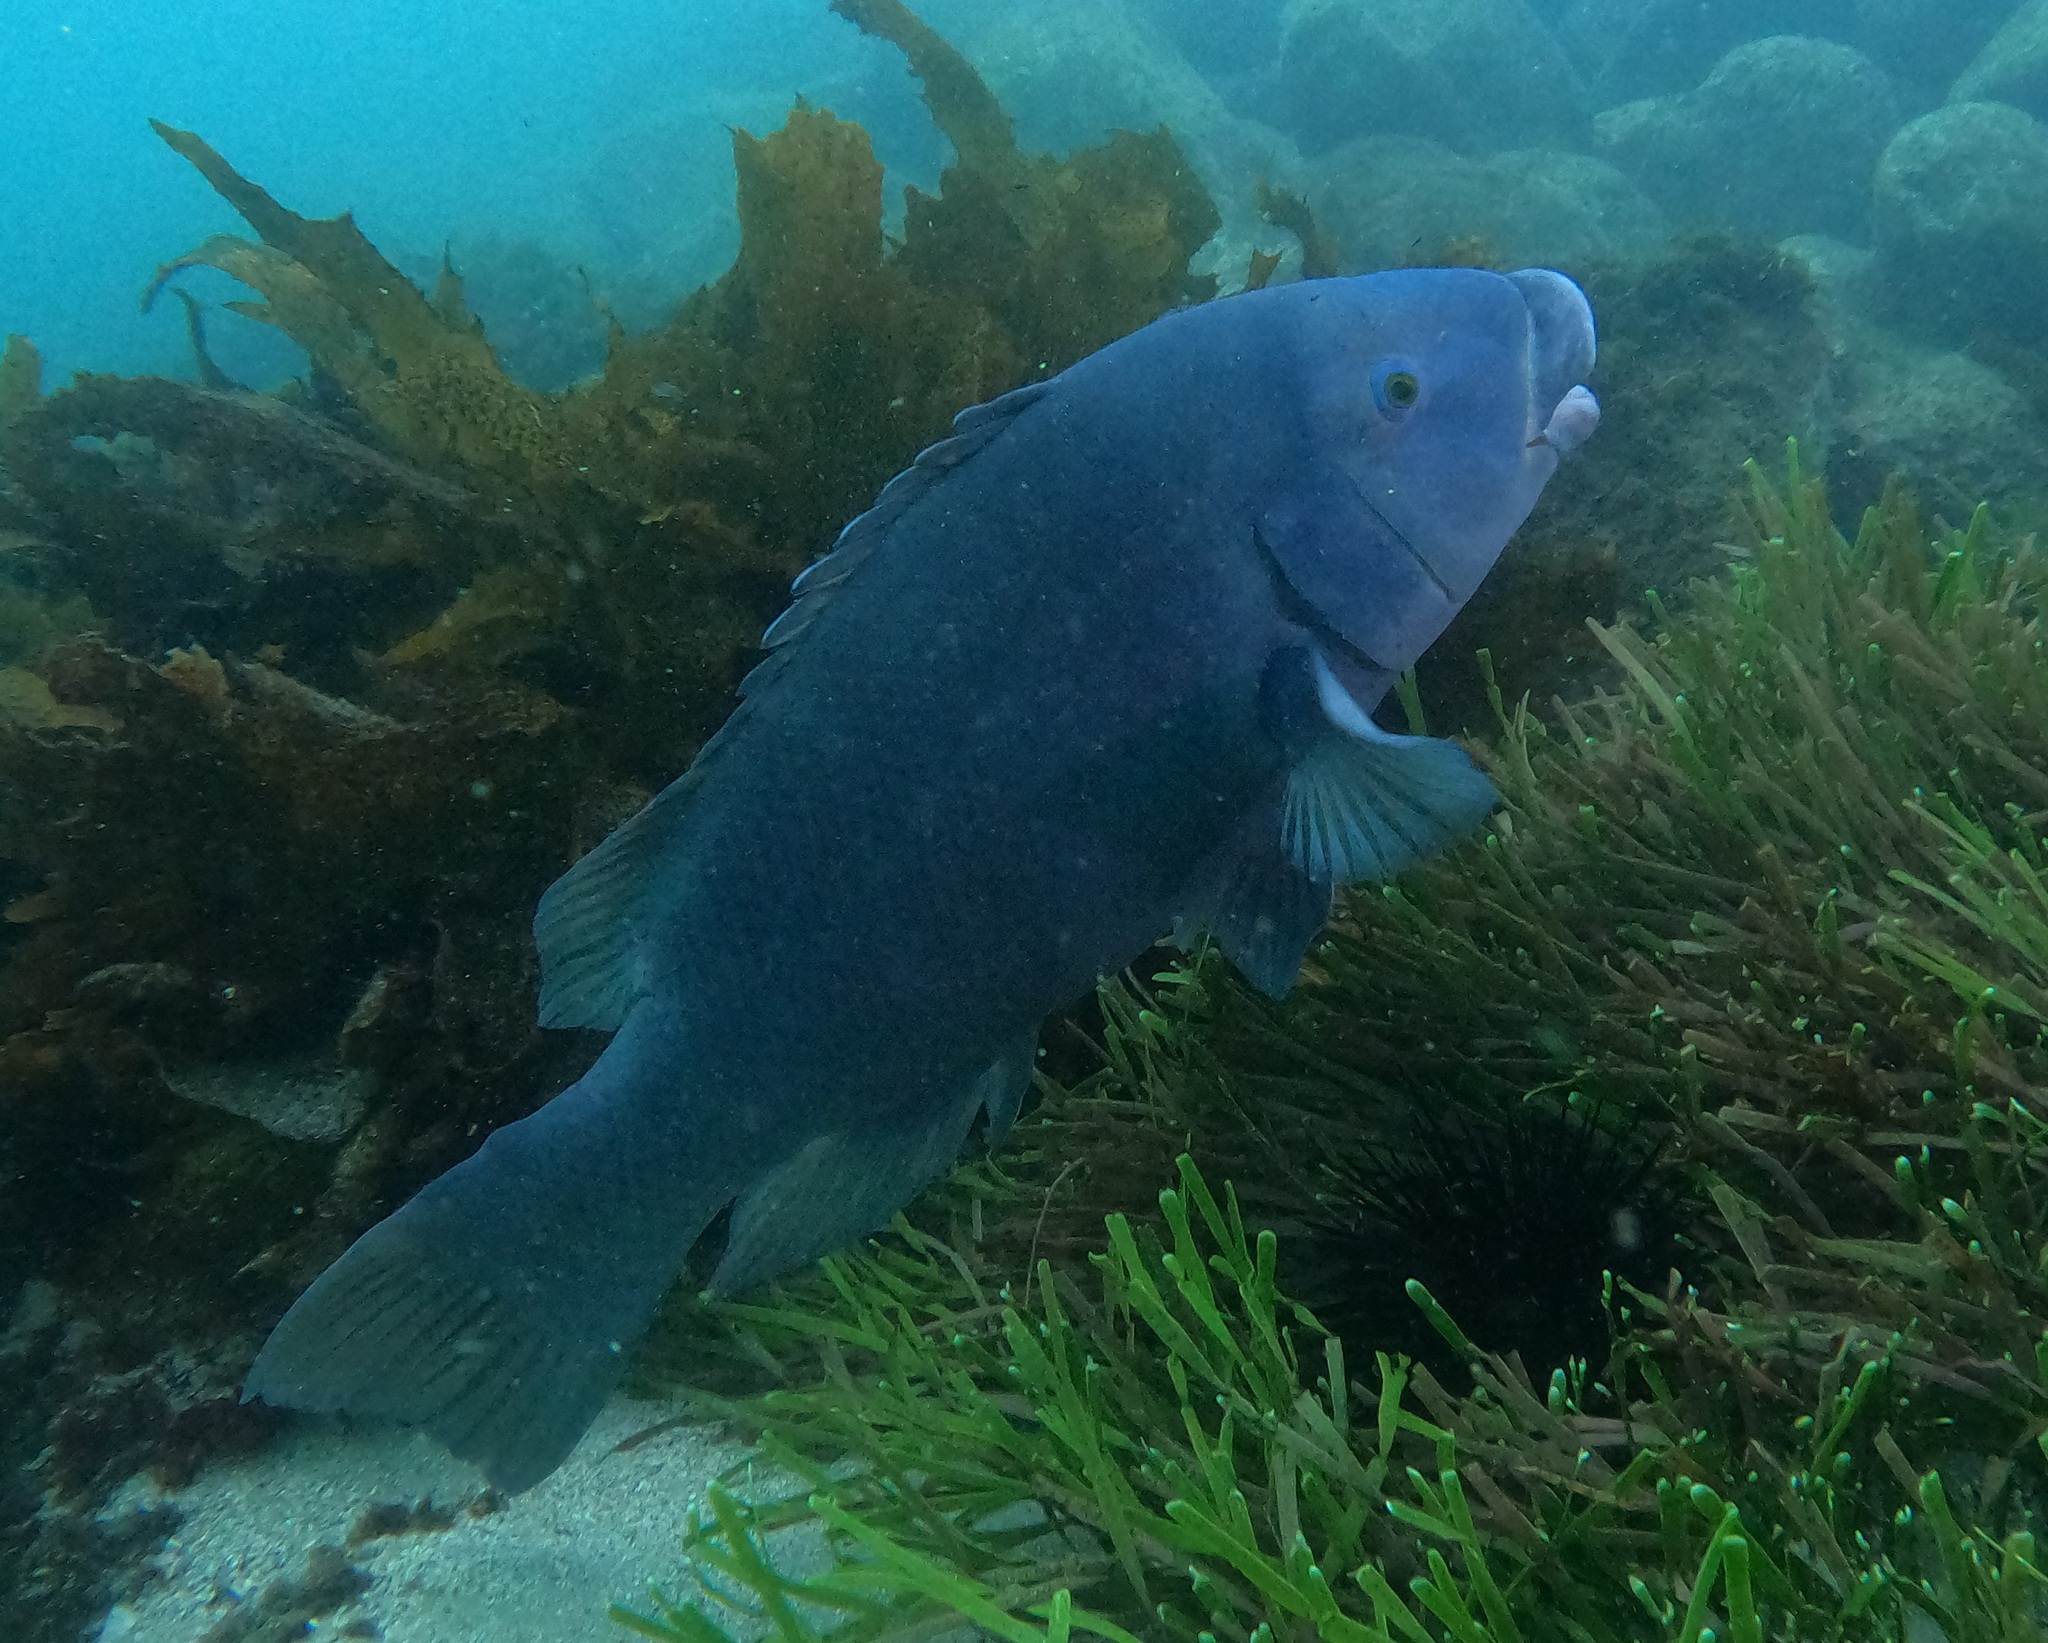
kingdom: Animalia
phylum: Chordata
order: Perciformes
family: Labridae
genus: Achoerodus
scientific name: Achoerodus viridis
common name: Brown groper
